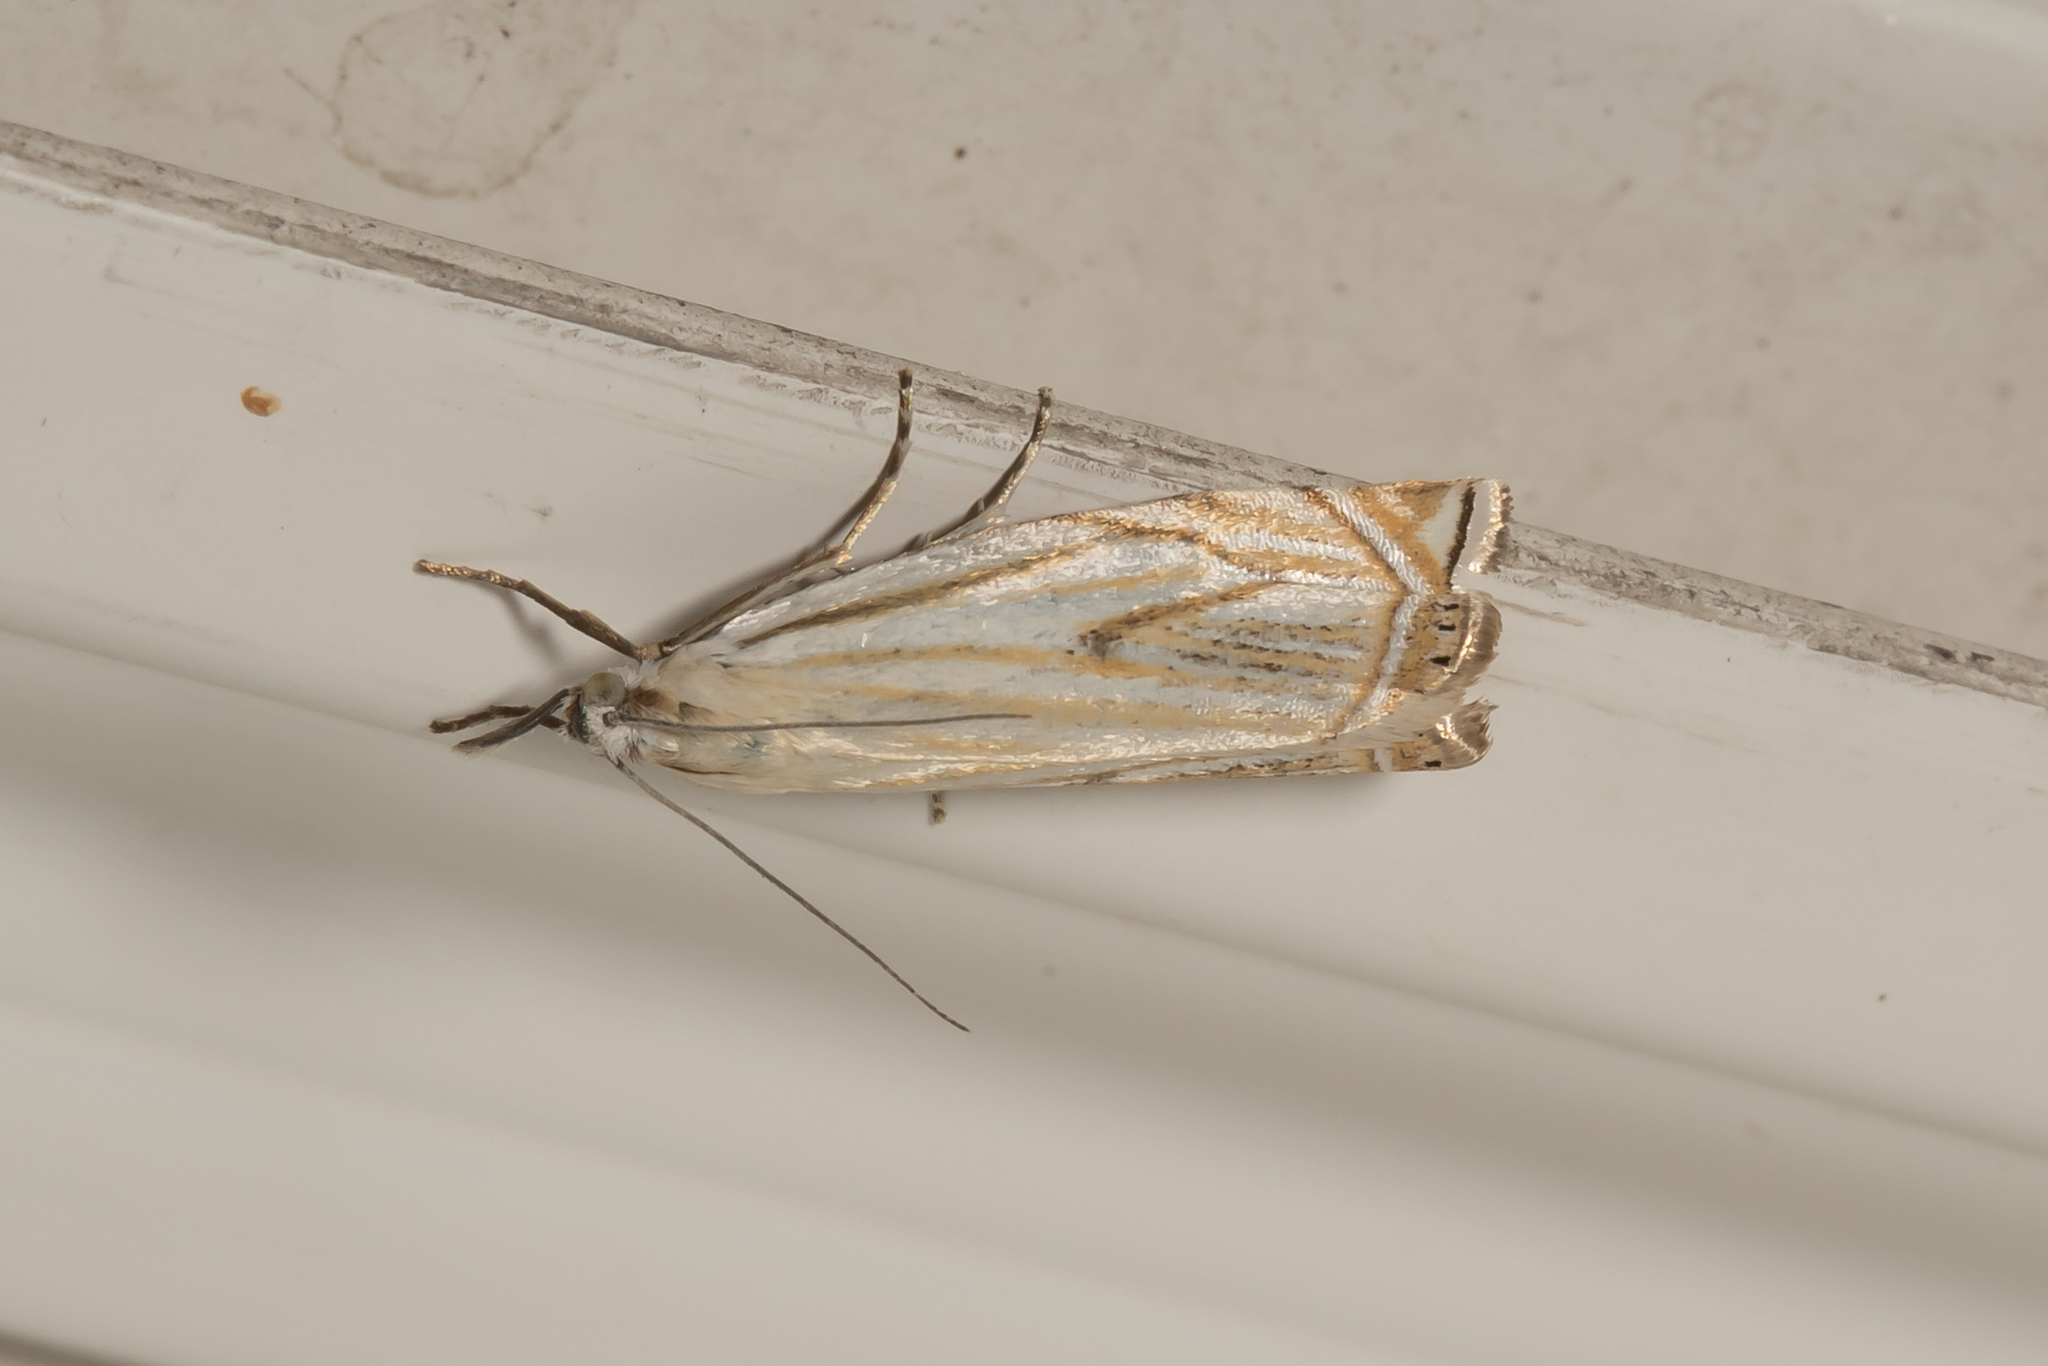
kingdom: Animalia
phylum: Arthropoda
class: Insecta
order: Lepidoptera
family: Crambidae
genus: Crambus
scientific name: Crambus nemorella
